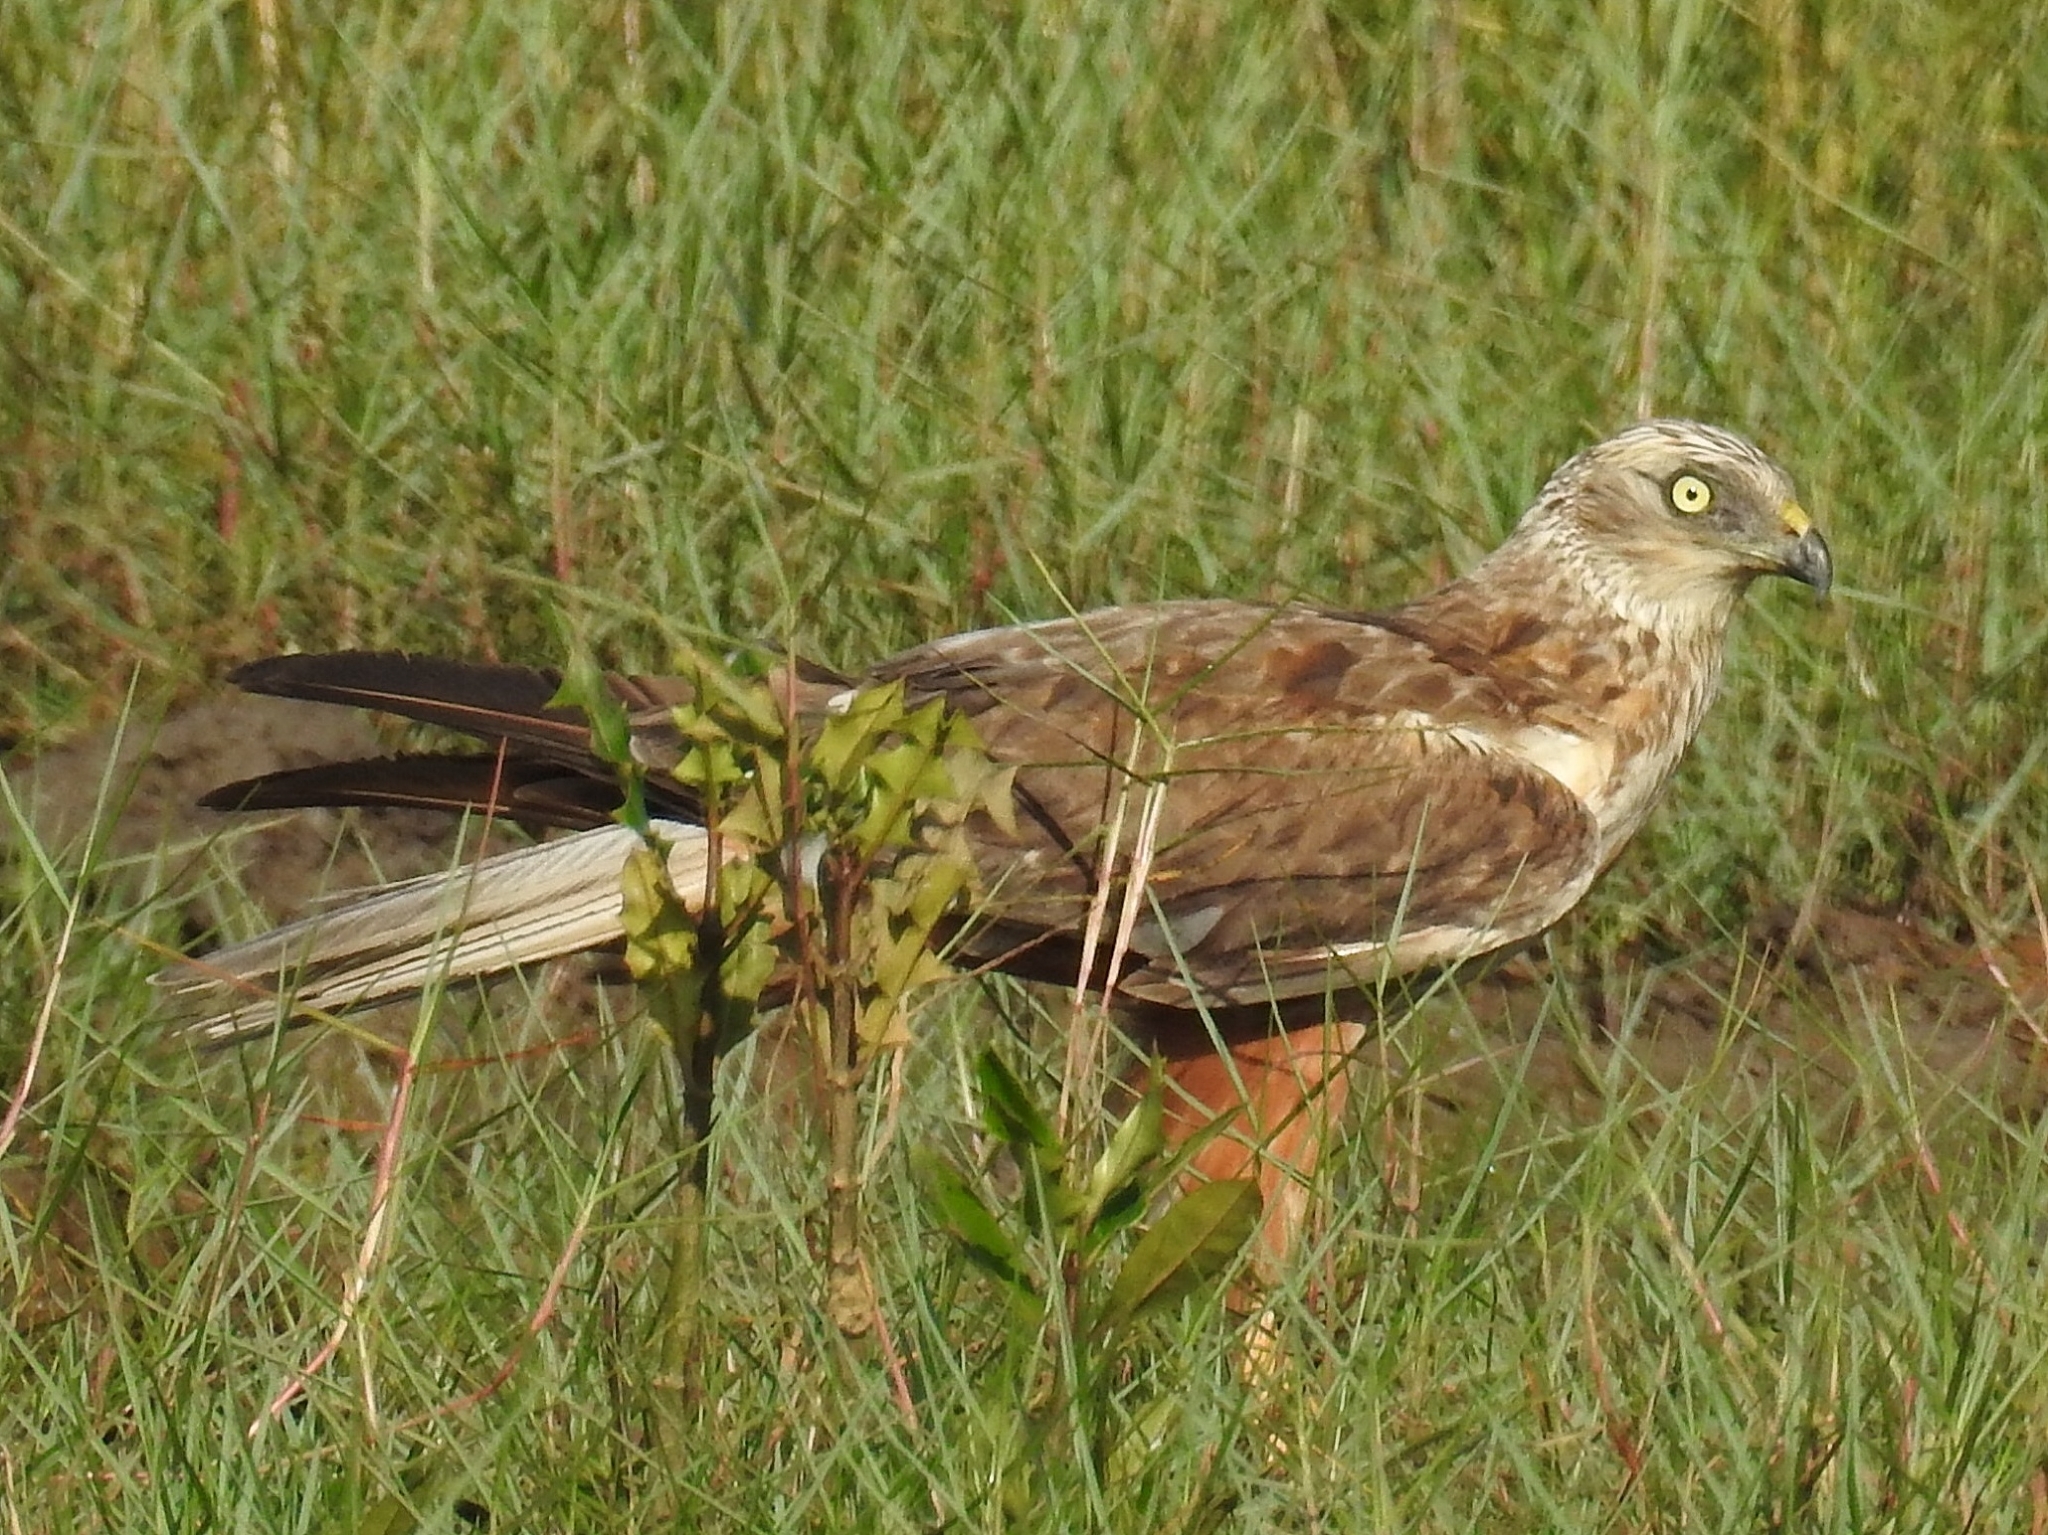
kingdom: Animalia
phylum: Chordata
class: Aves
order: Accipitriformes
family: Accipitridae
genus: Circus
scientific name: Circus aeruginosus
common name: Western marsh harrier
